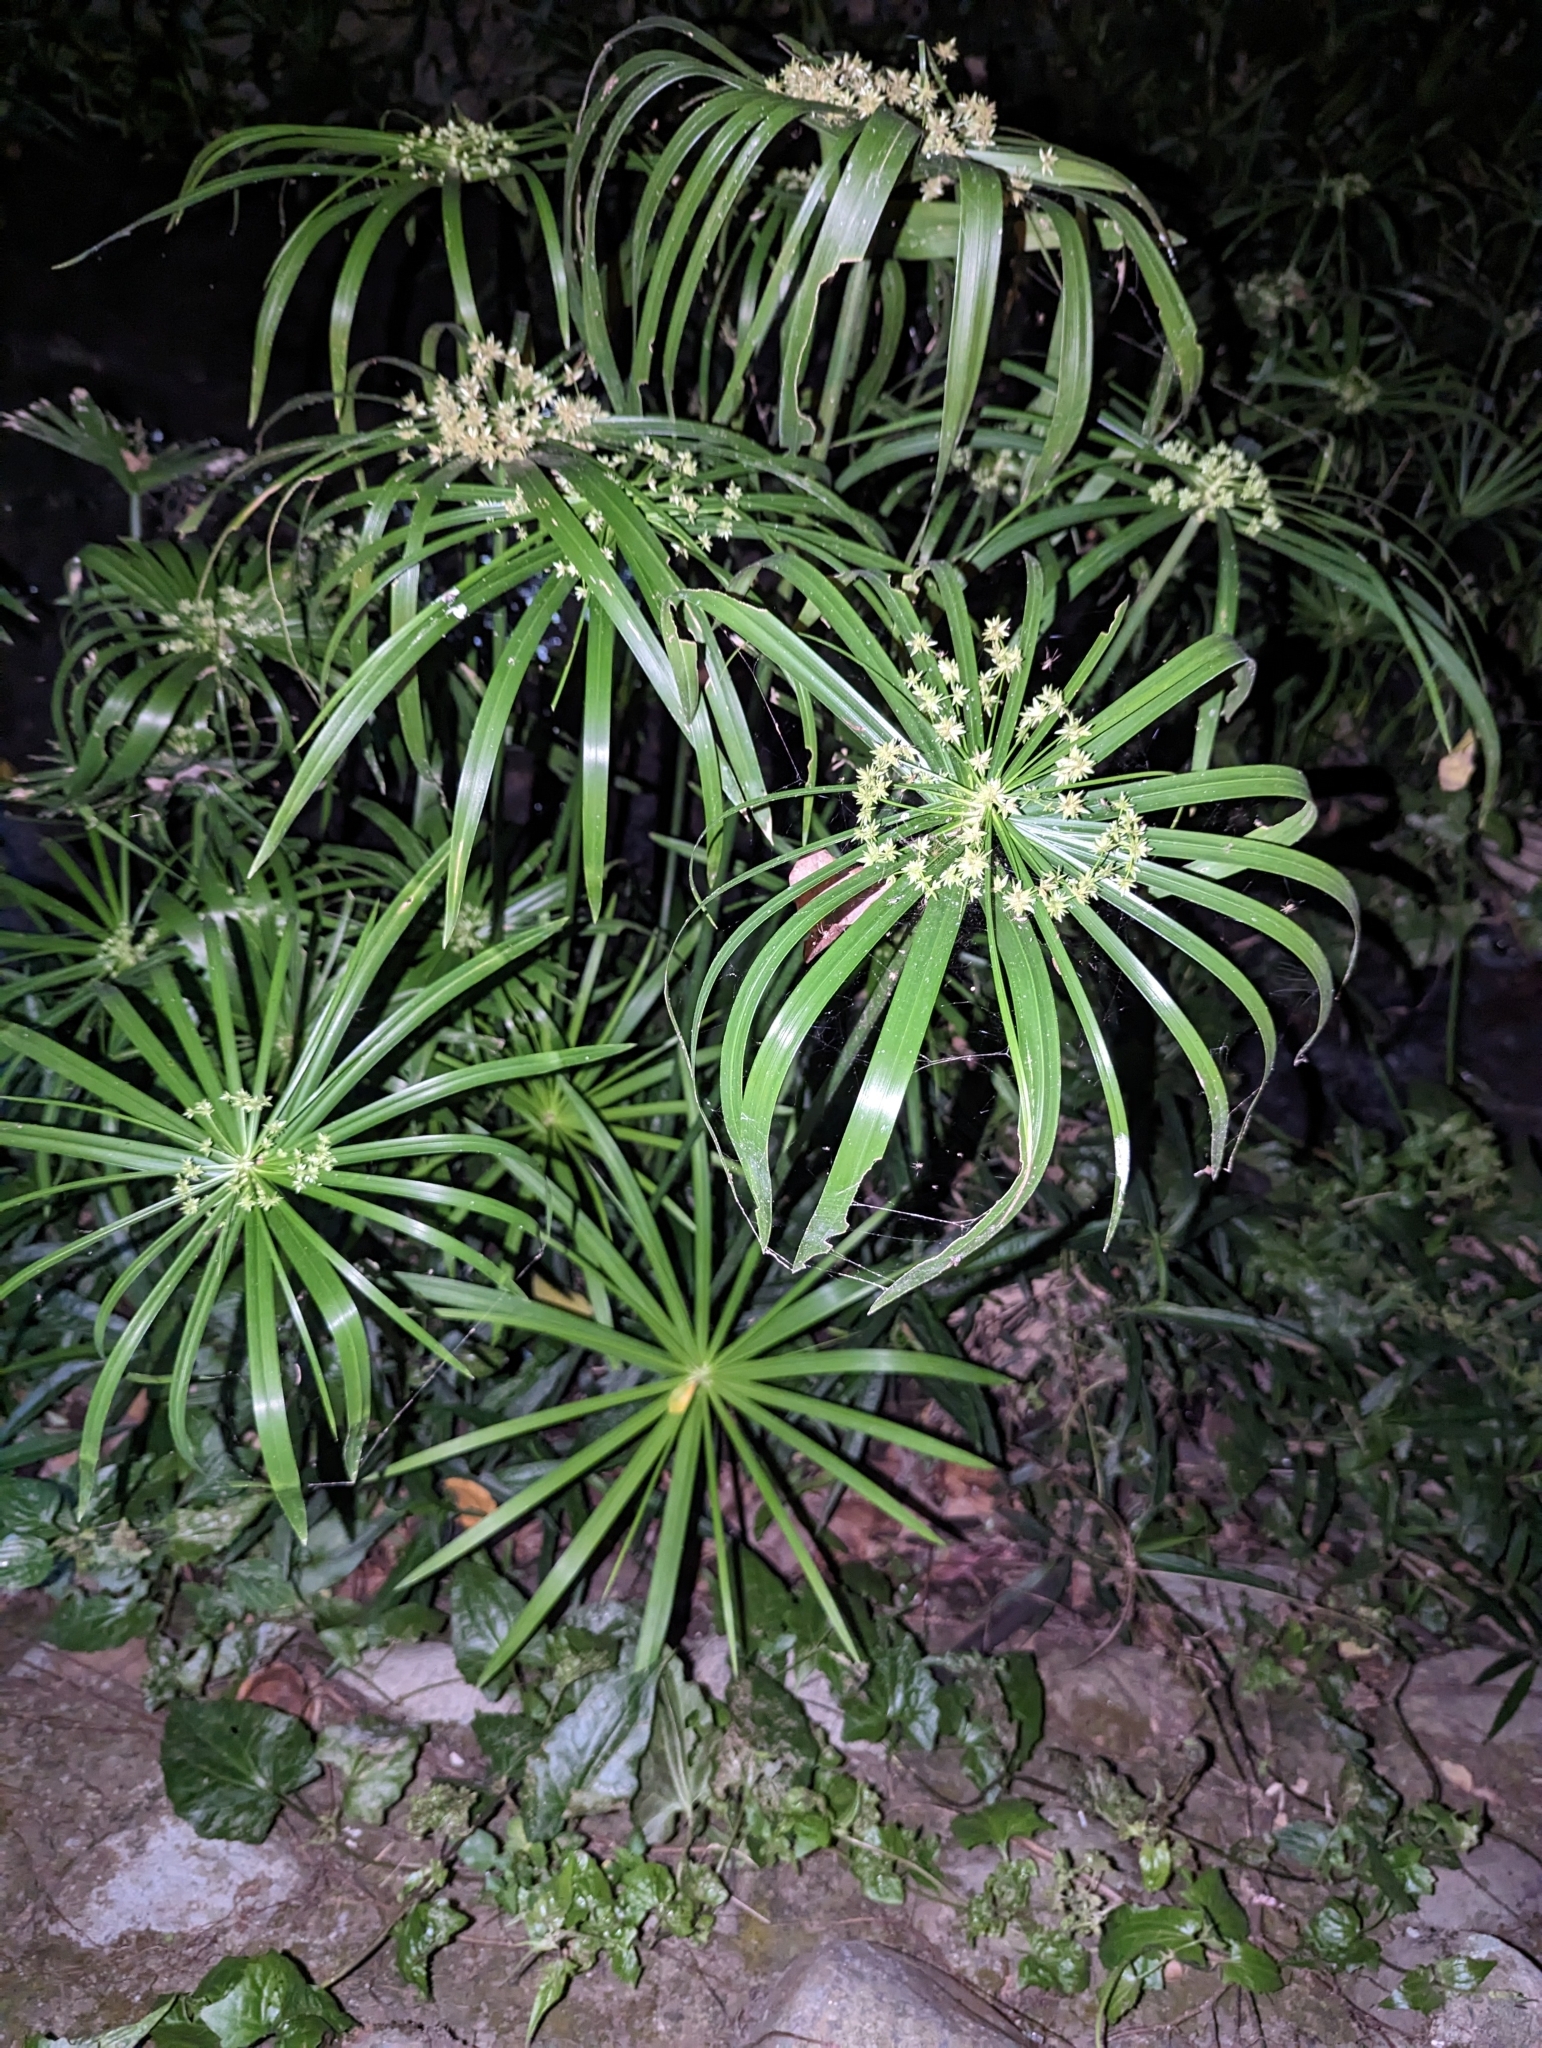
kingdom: Plantae
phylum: Tracheophyta
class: Liliopsida
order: Poales
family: Cyperaceae
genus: Cyperus
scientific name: Cyperus alternifolius
